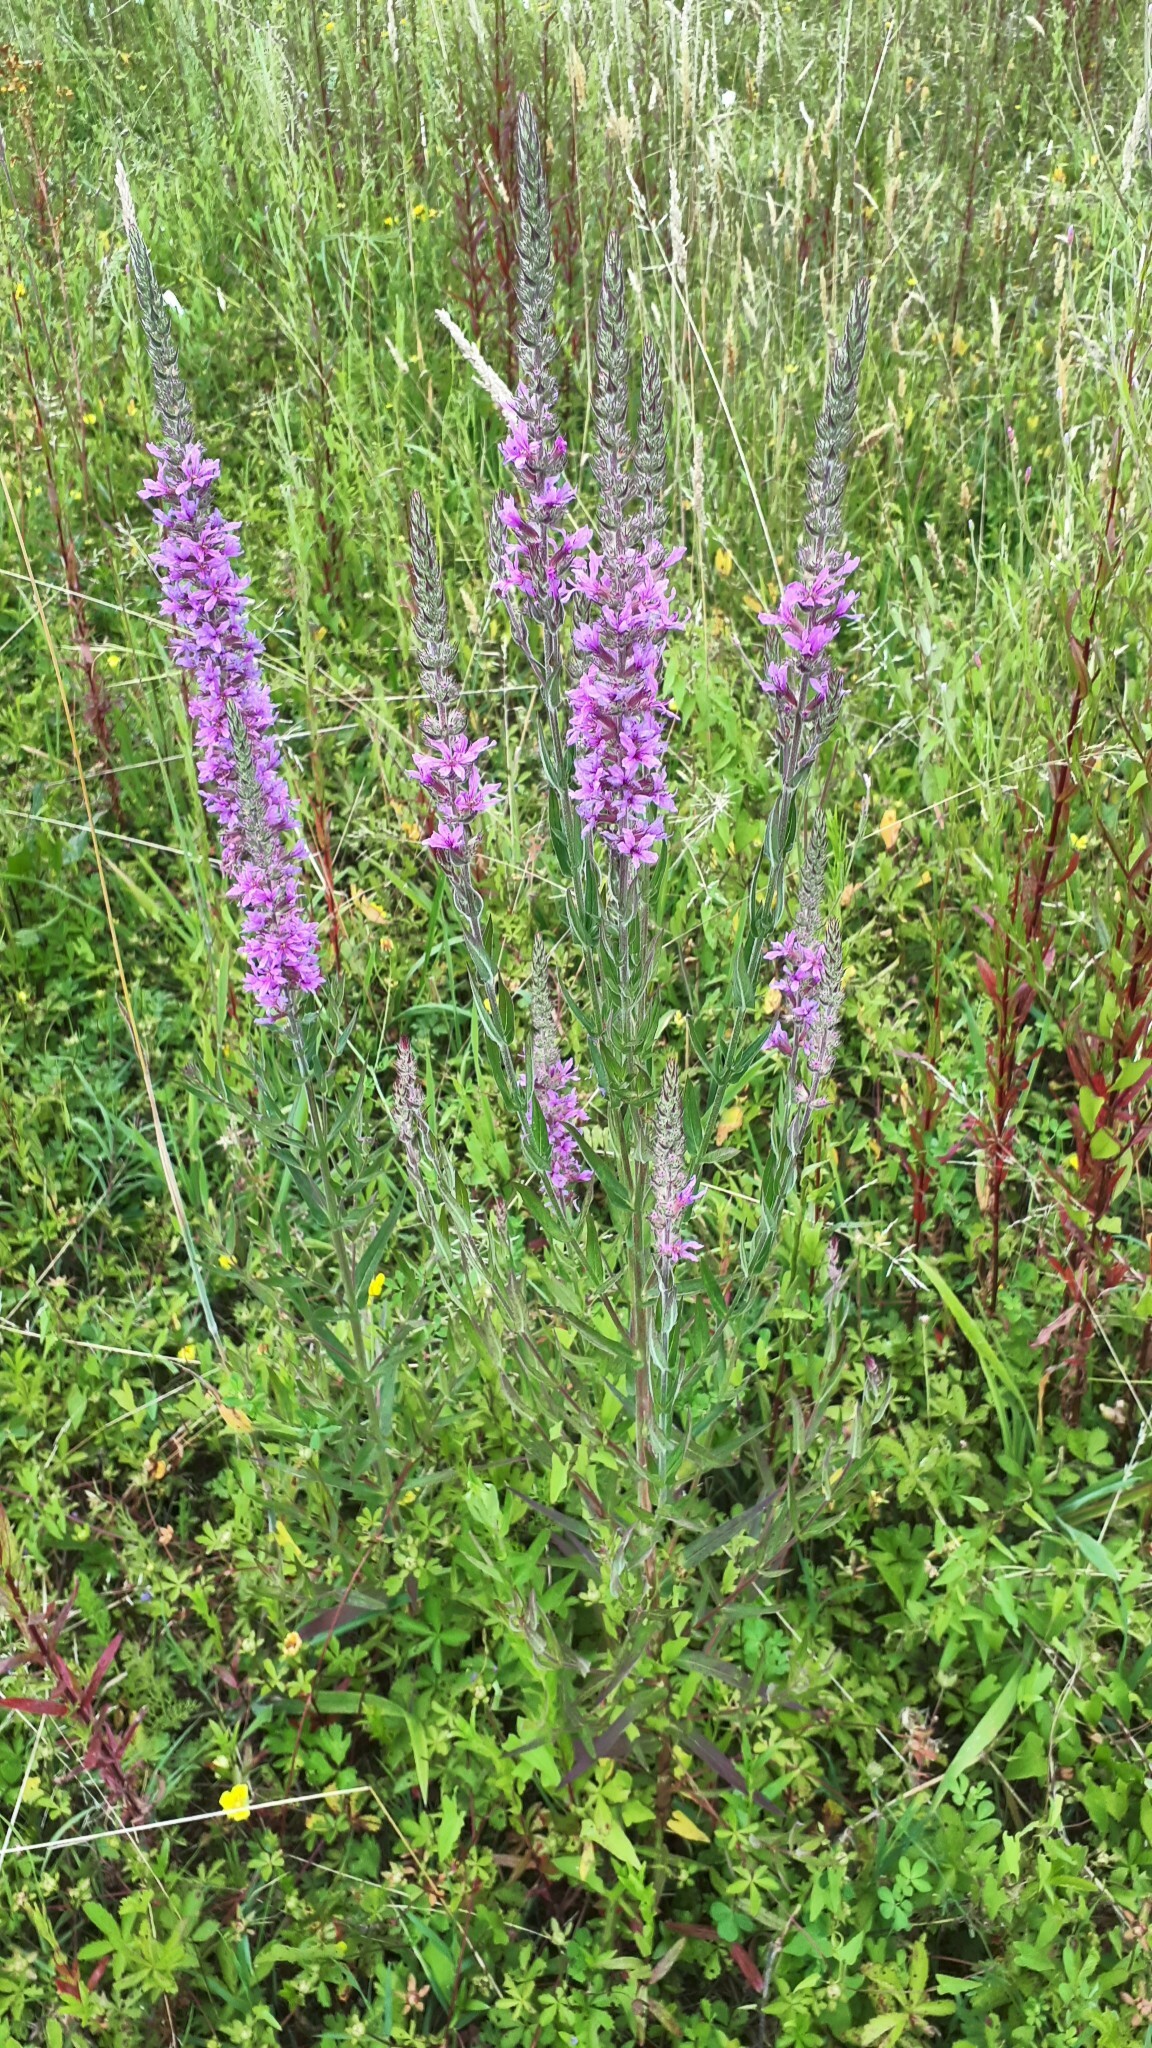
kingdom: Plantae
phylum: Tracheophyta
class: Magnoliopsida
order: Myrtales
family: Lythraceae
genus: Lythrum
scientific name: Lythrum salicaria
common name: Purple loosestrife
